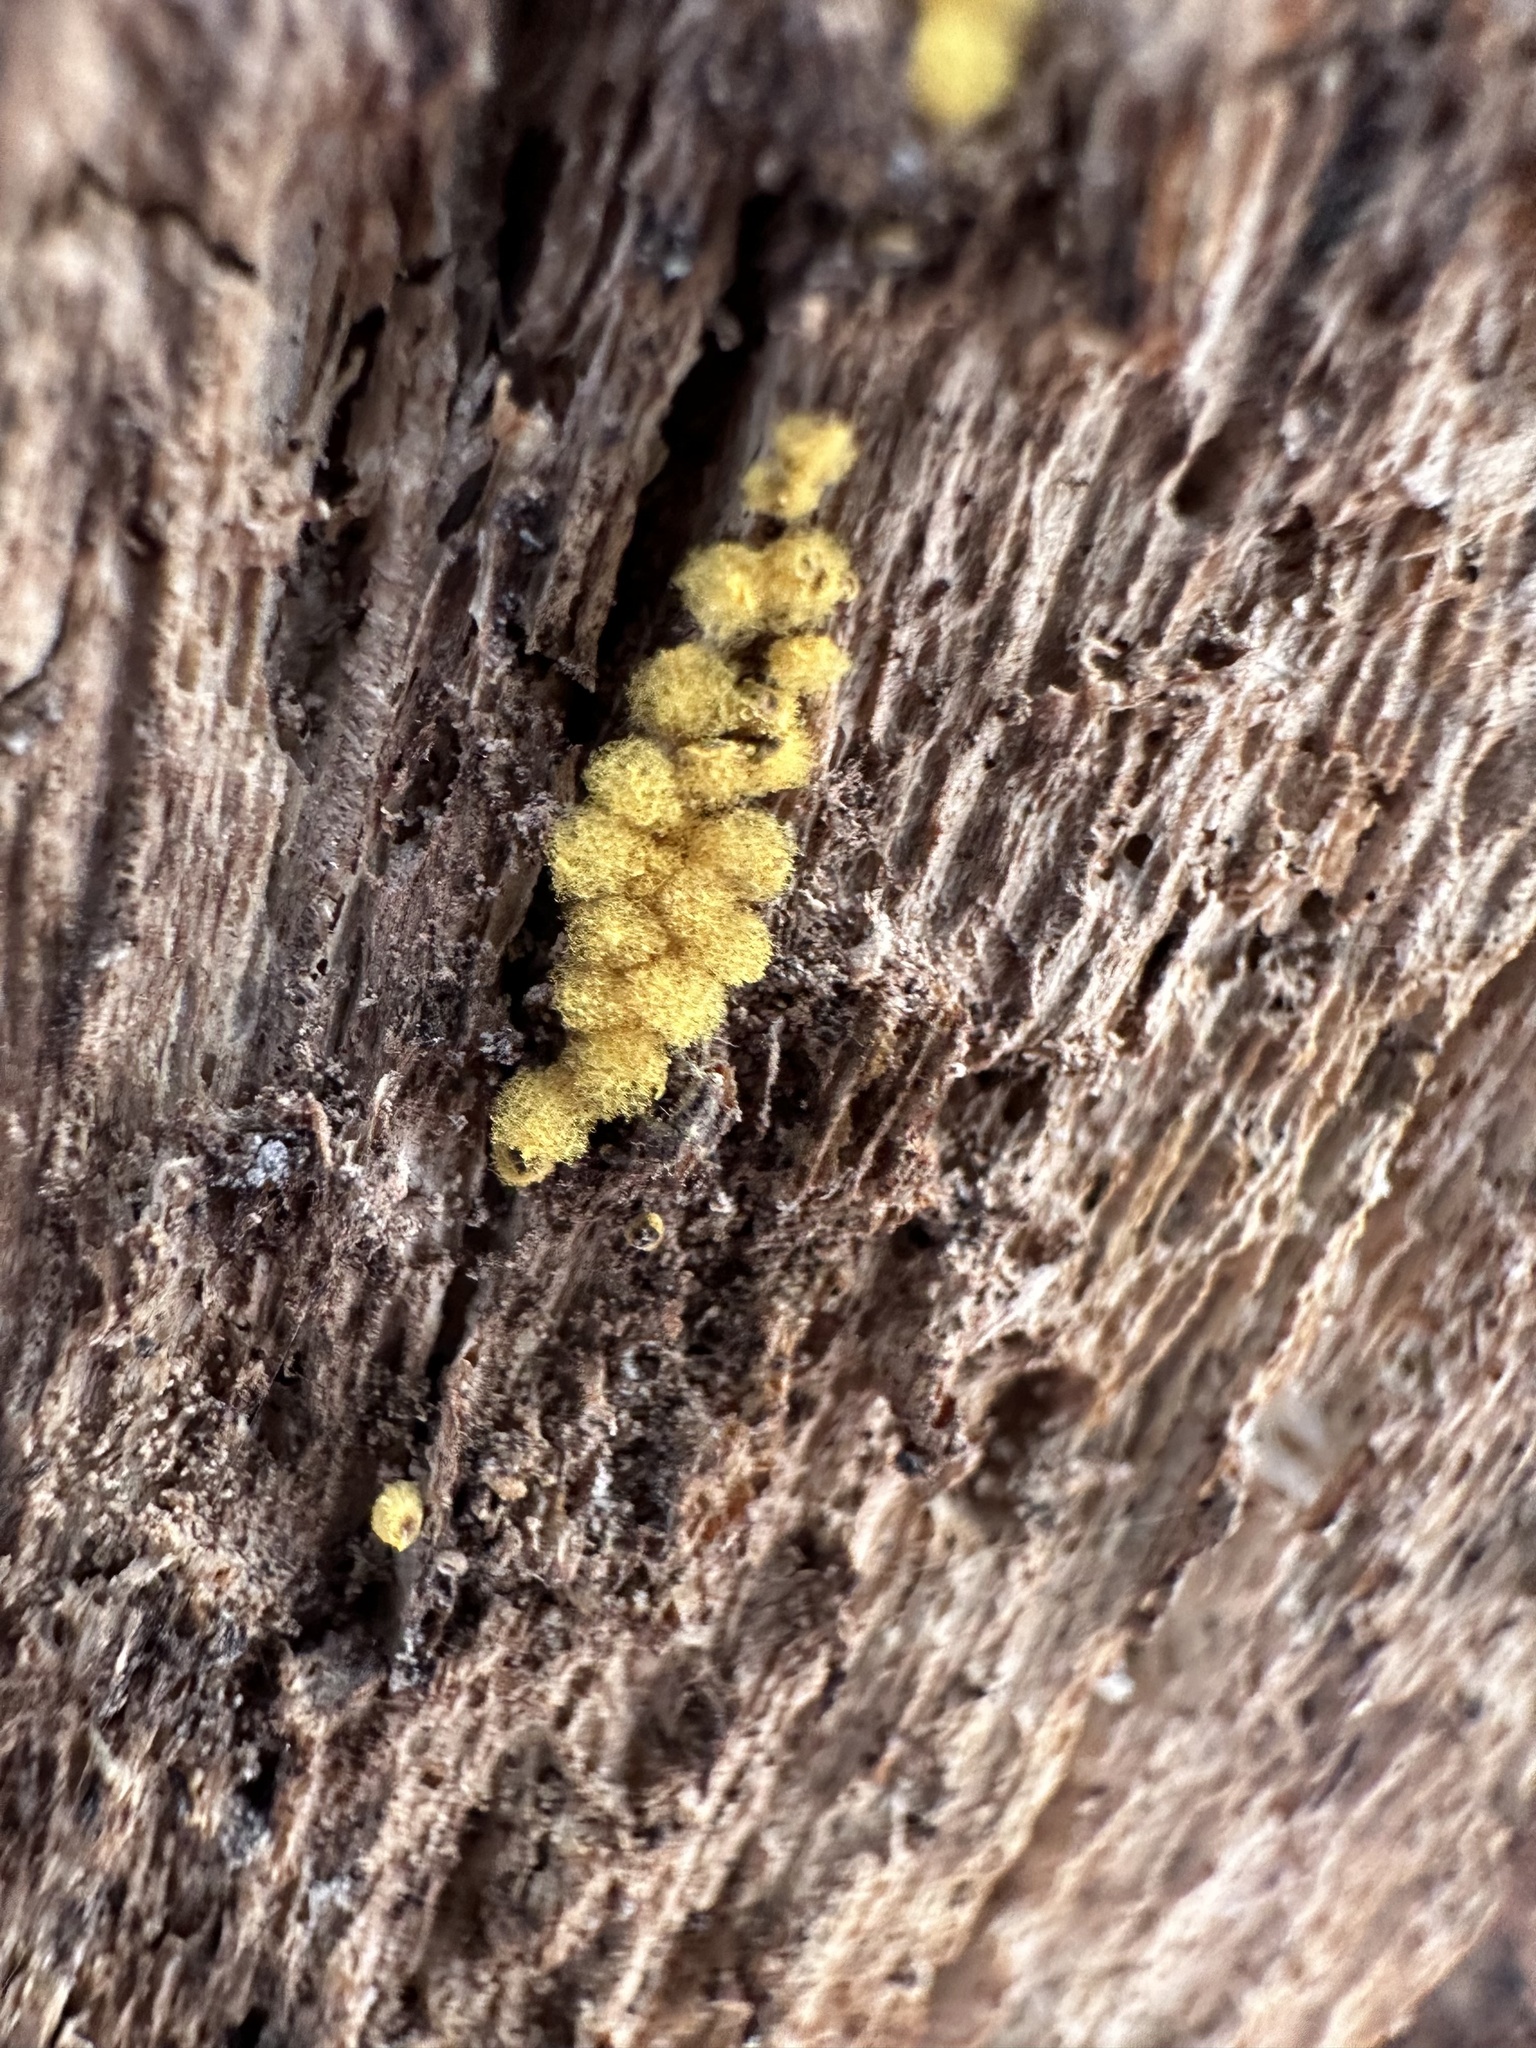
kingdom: Protozoa
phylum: Mycetozoa
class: Myxomycetes
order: Trichiales
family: Arcyriaceae
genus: Arcyria
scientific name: Arcyria obvelata
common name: Yellow carnival candy slime
